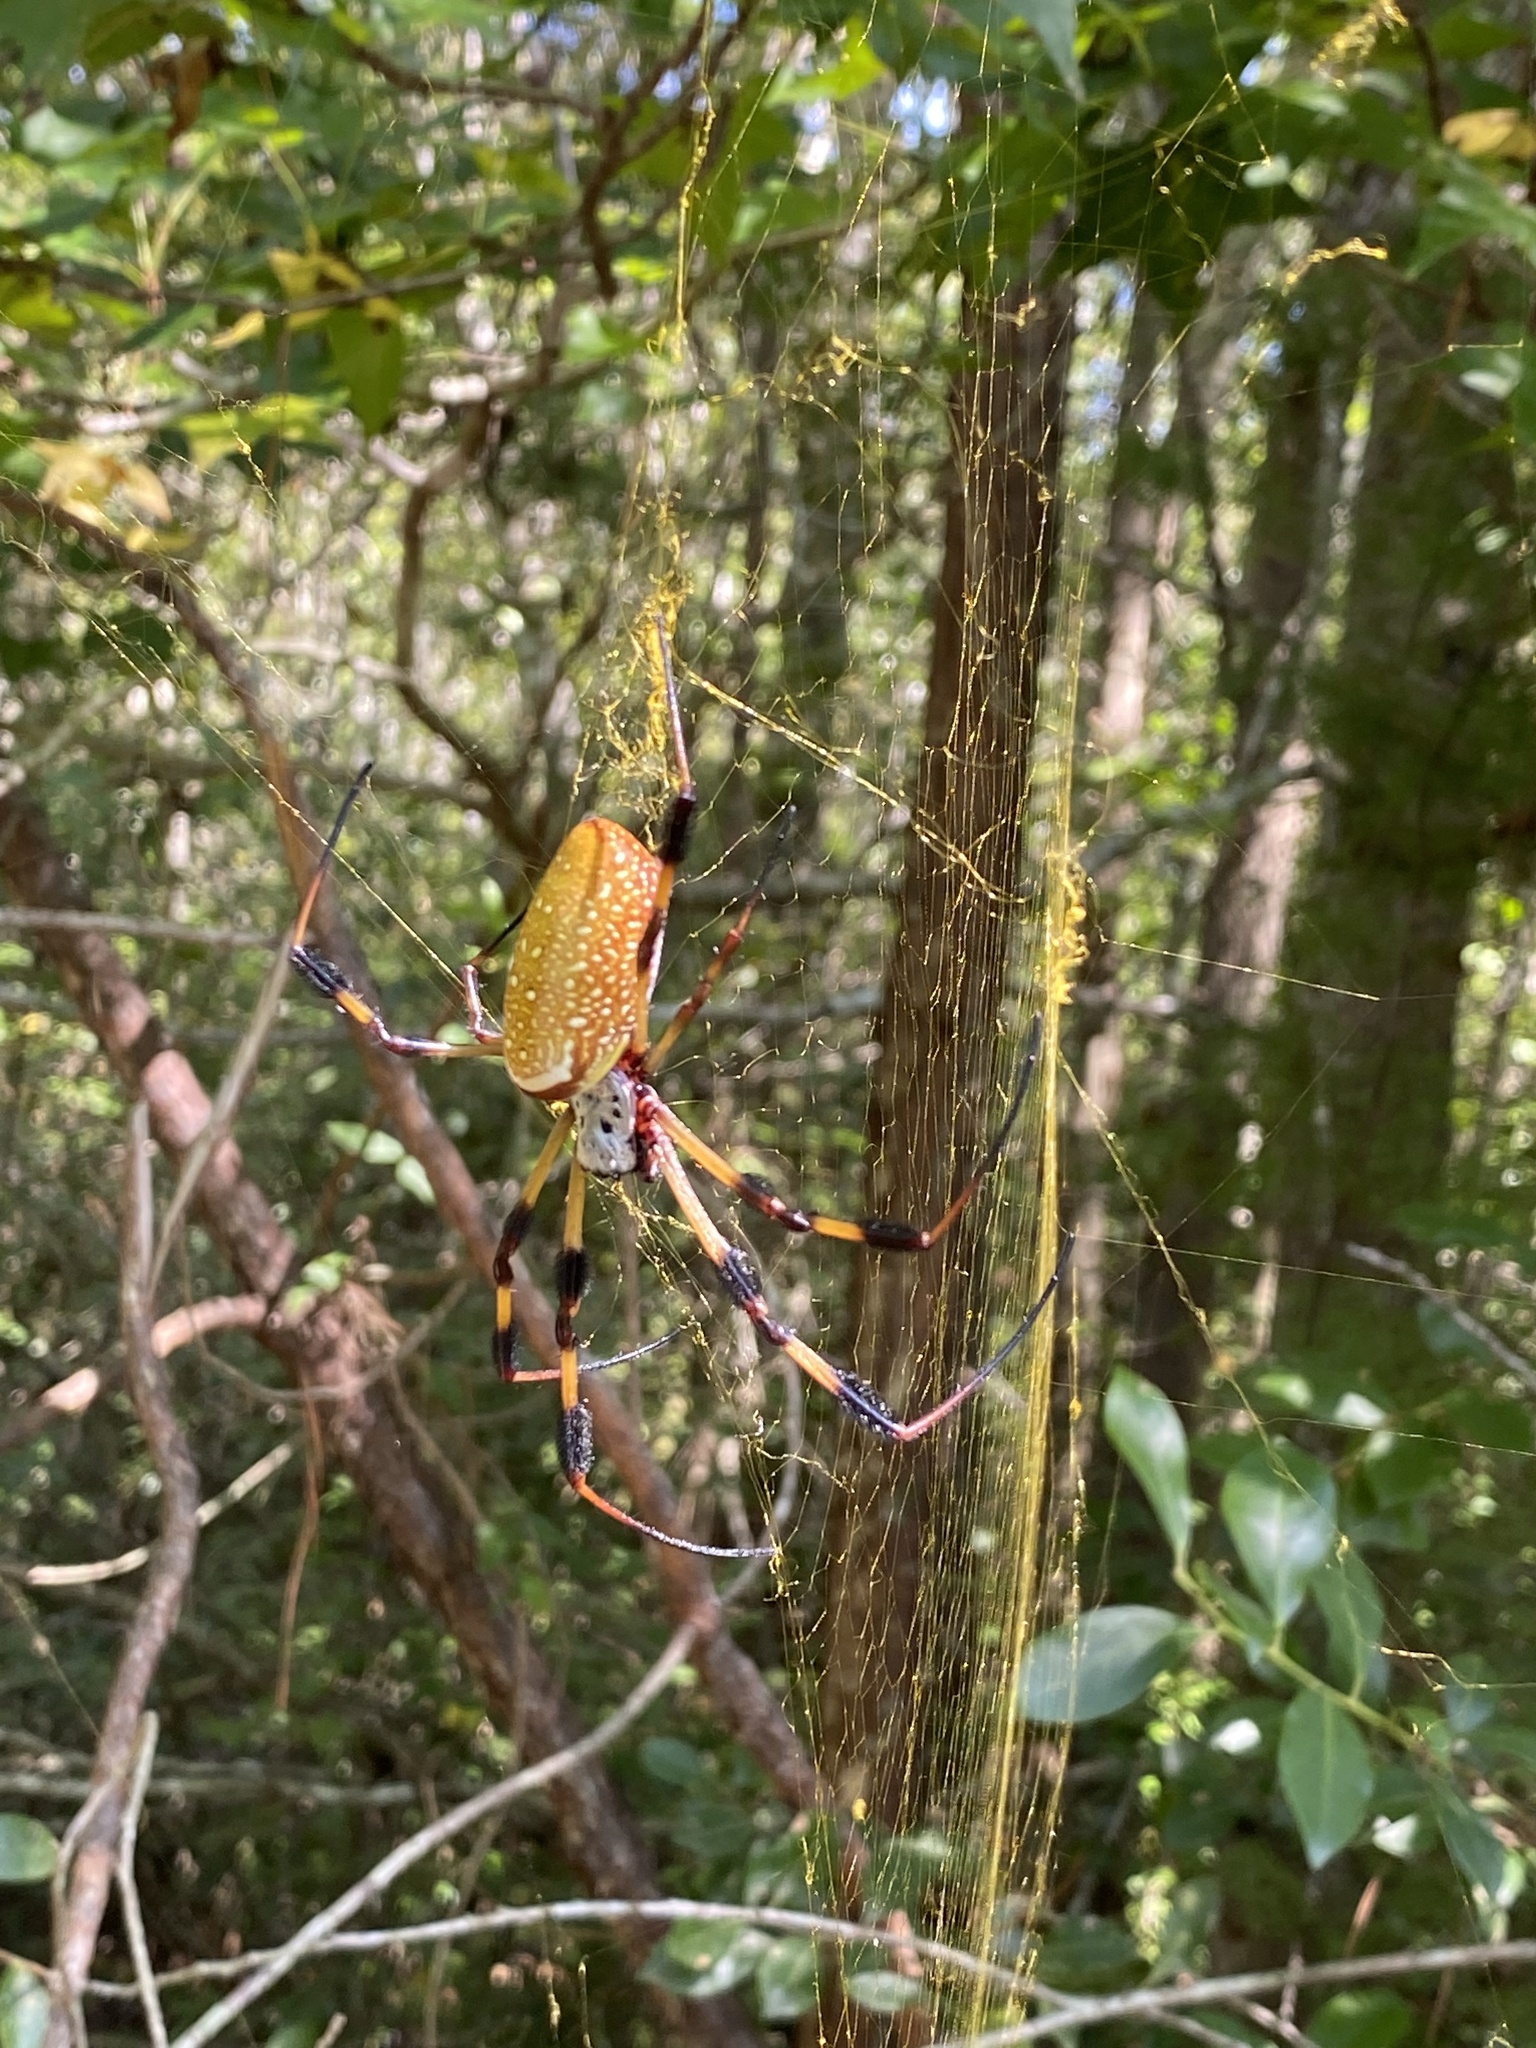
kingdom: Animalia
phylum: Arthropoda
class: Arachnida
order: Araneae
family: Araneidae
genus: Trichonephila
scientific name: Trichonephila clavipes
